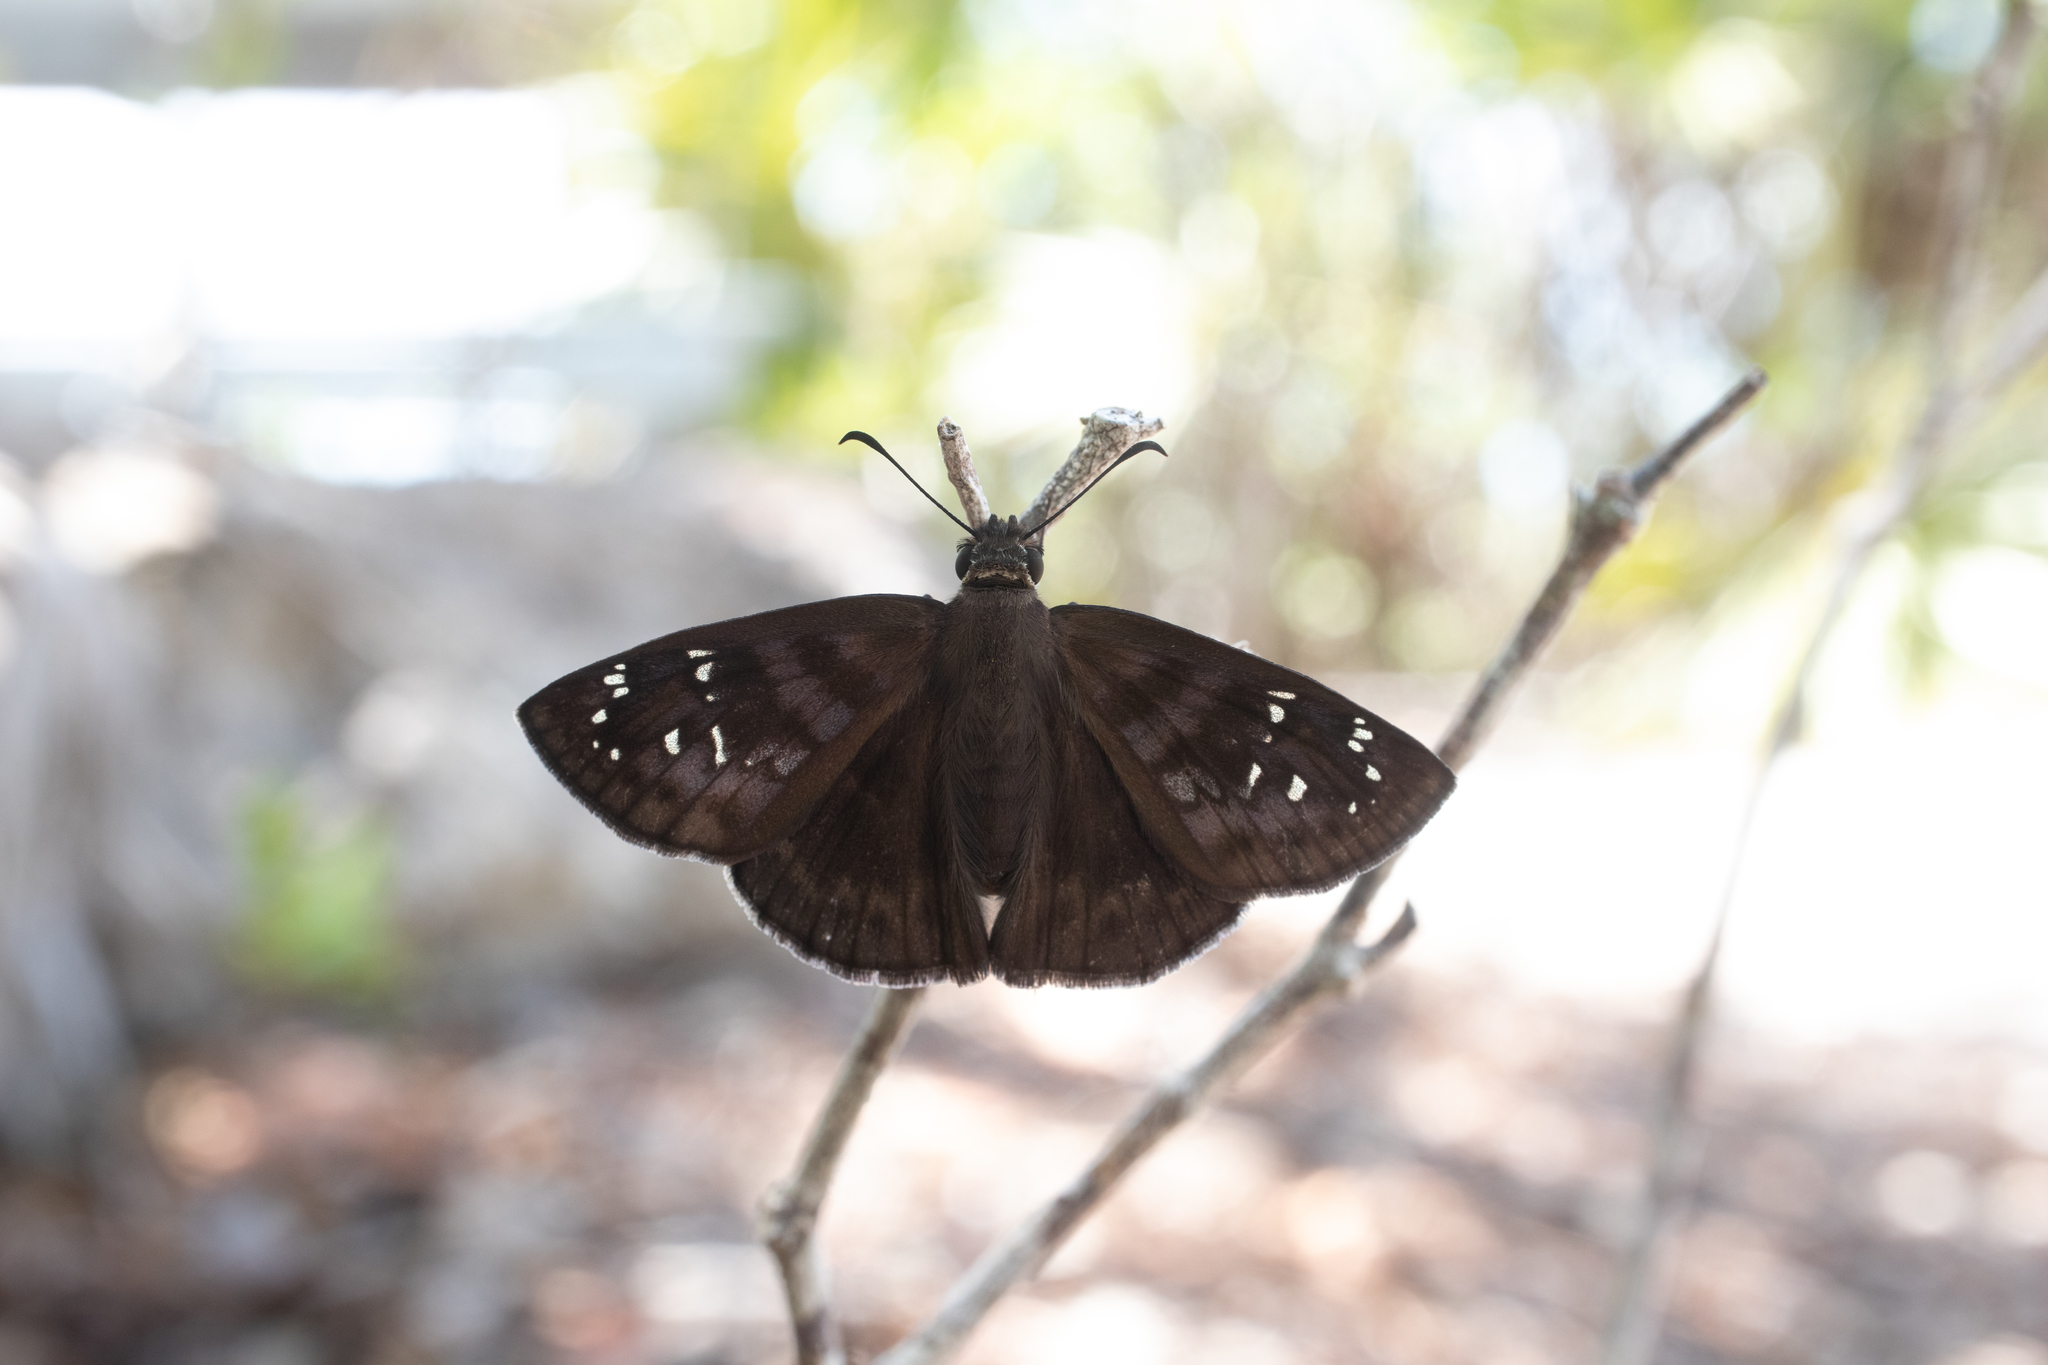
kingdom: Animalia
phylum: Arthropoda
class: Insecta
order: Lepidoptera
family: Hesperiidae
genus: Ephyriades
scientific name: Ephyriades brunnea
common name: Florida duskywing
